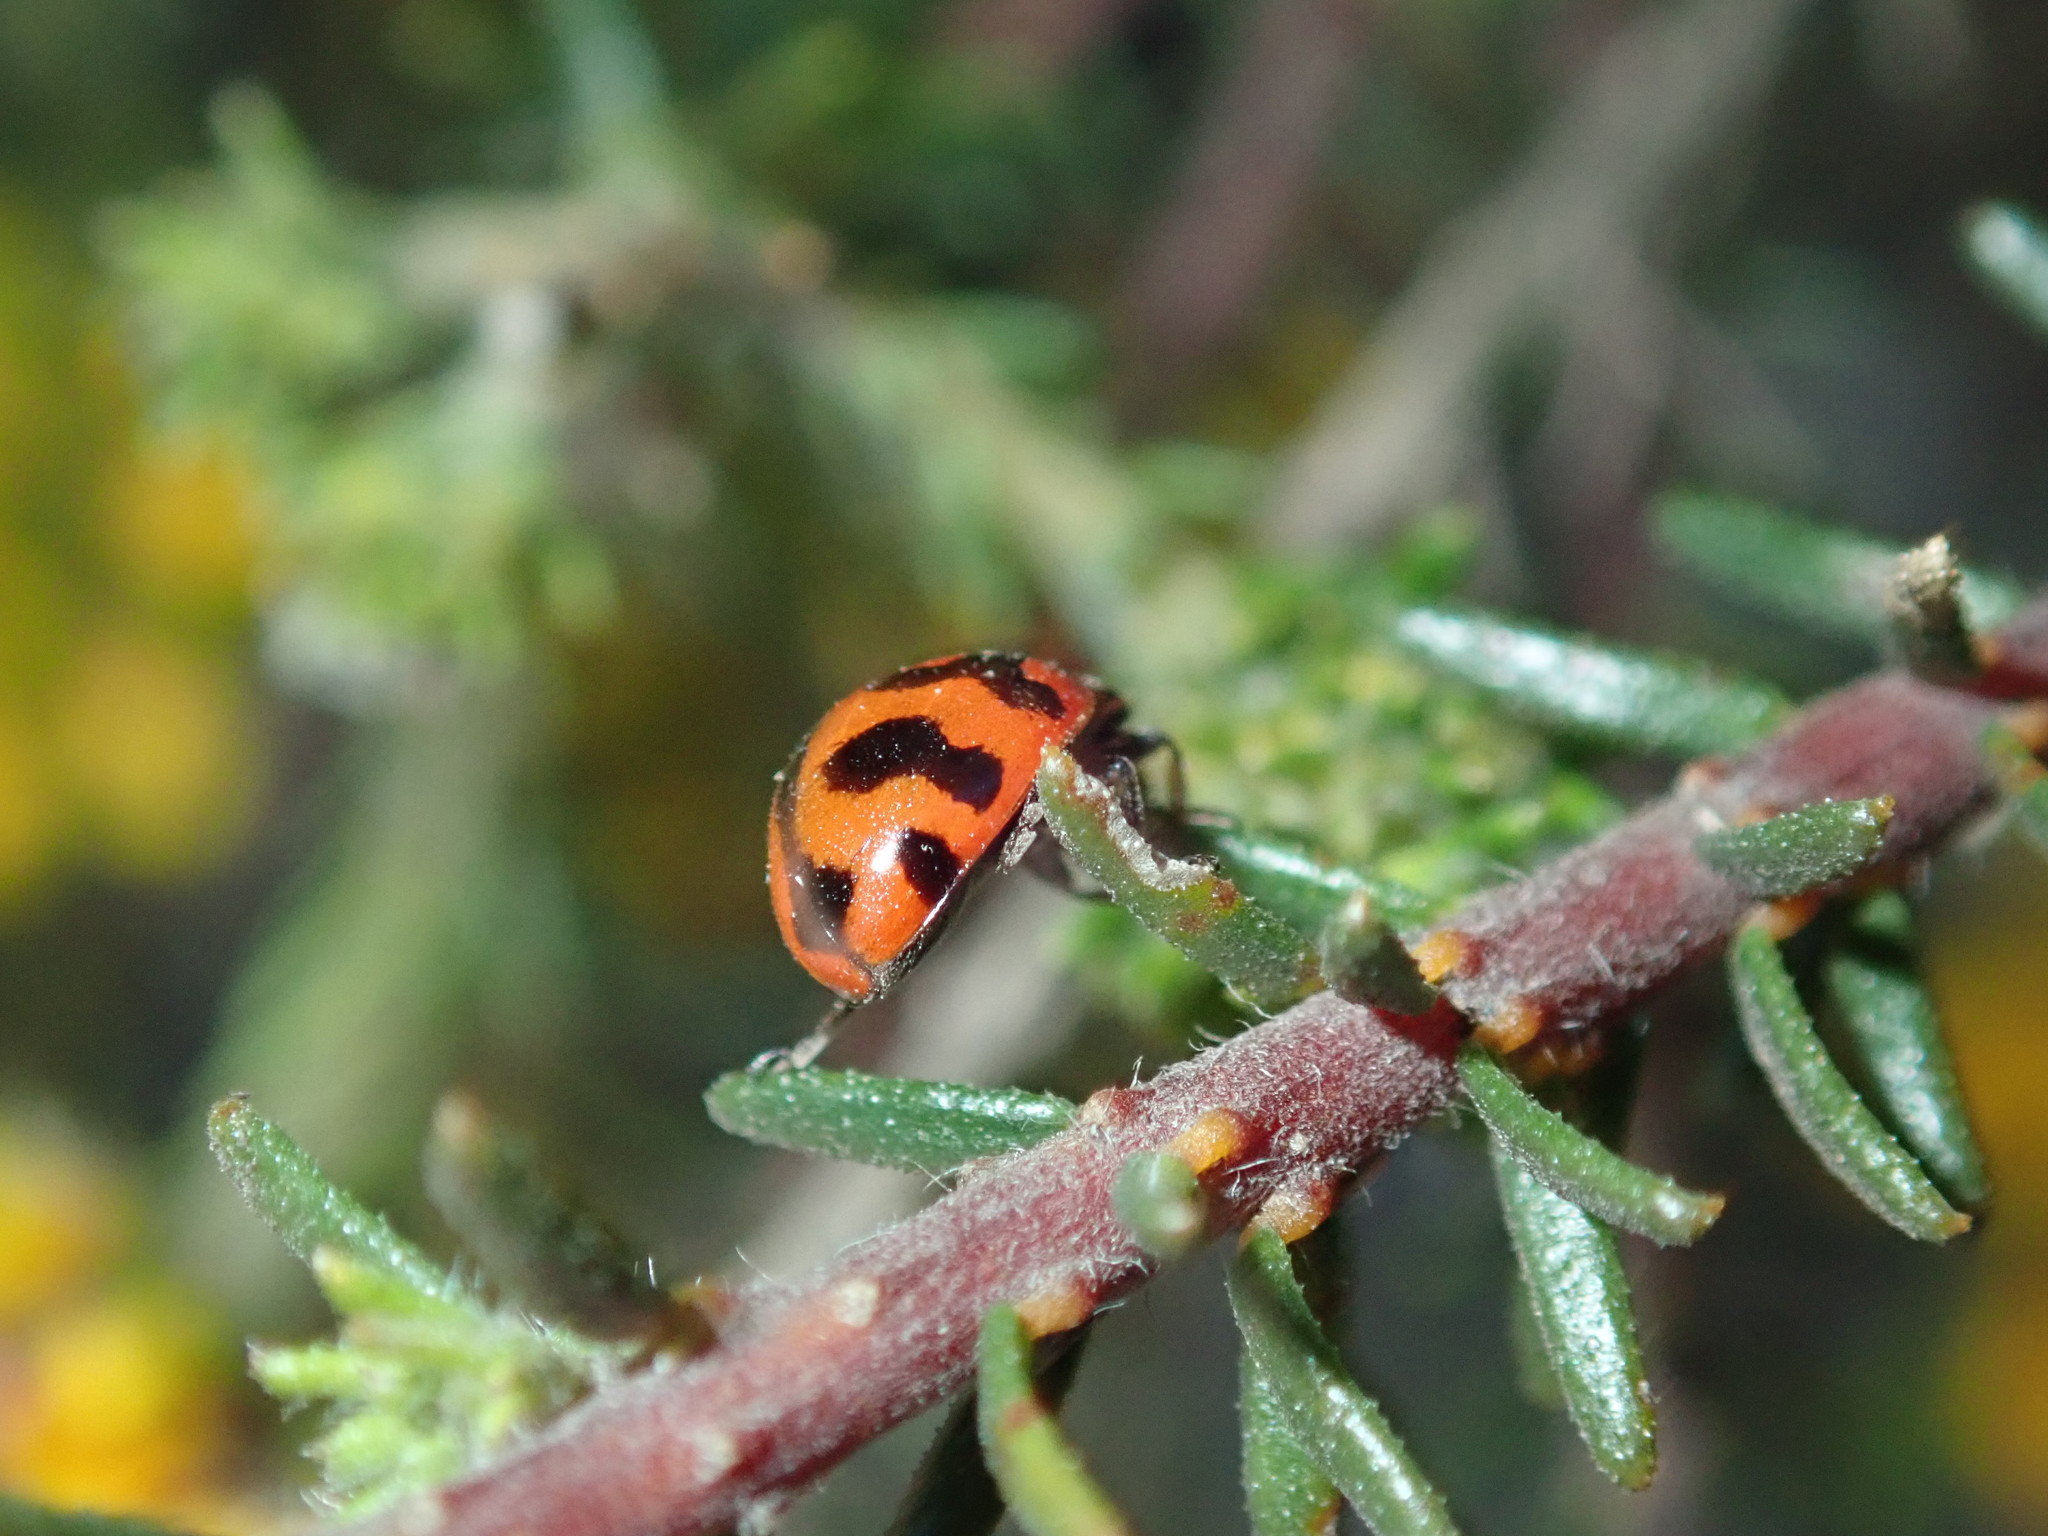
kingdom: Animalia
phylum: Arthropoda
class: Insecta
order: Coleoptera
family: Coccinellidae
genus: Coccinella
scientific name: Coccinella transversalis
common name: Transverse lady beetle
